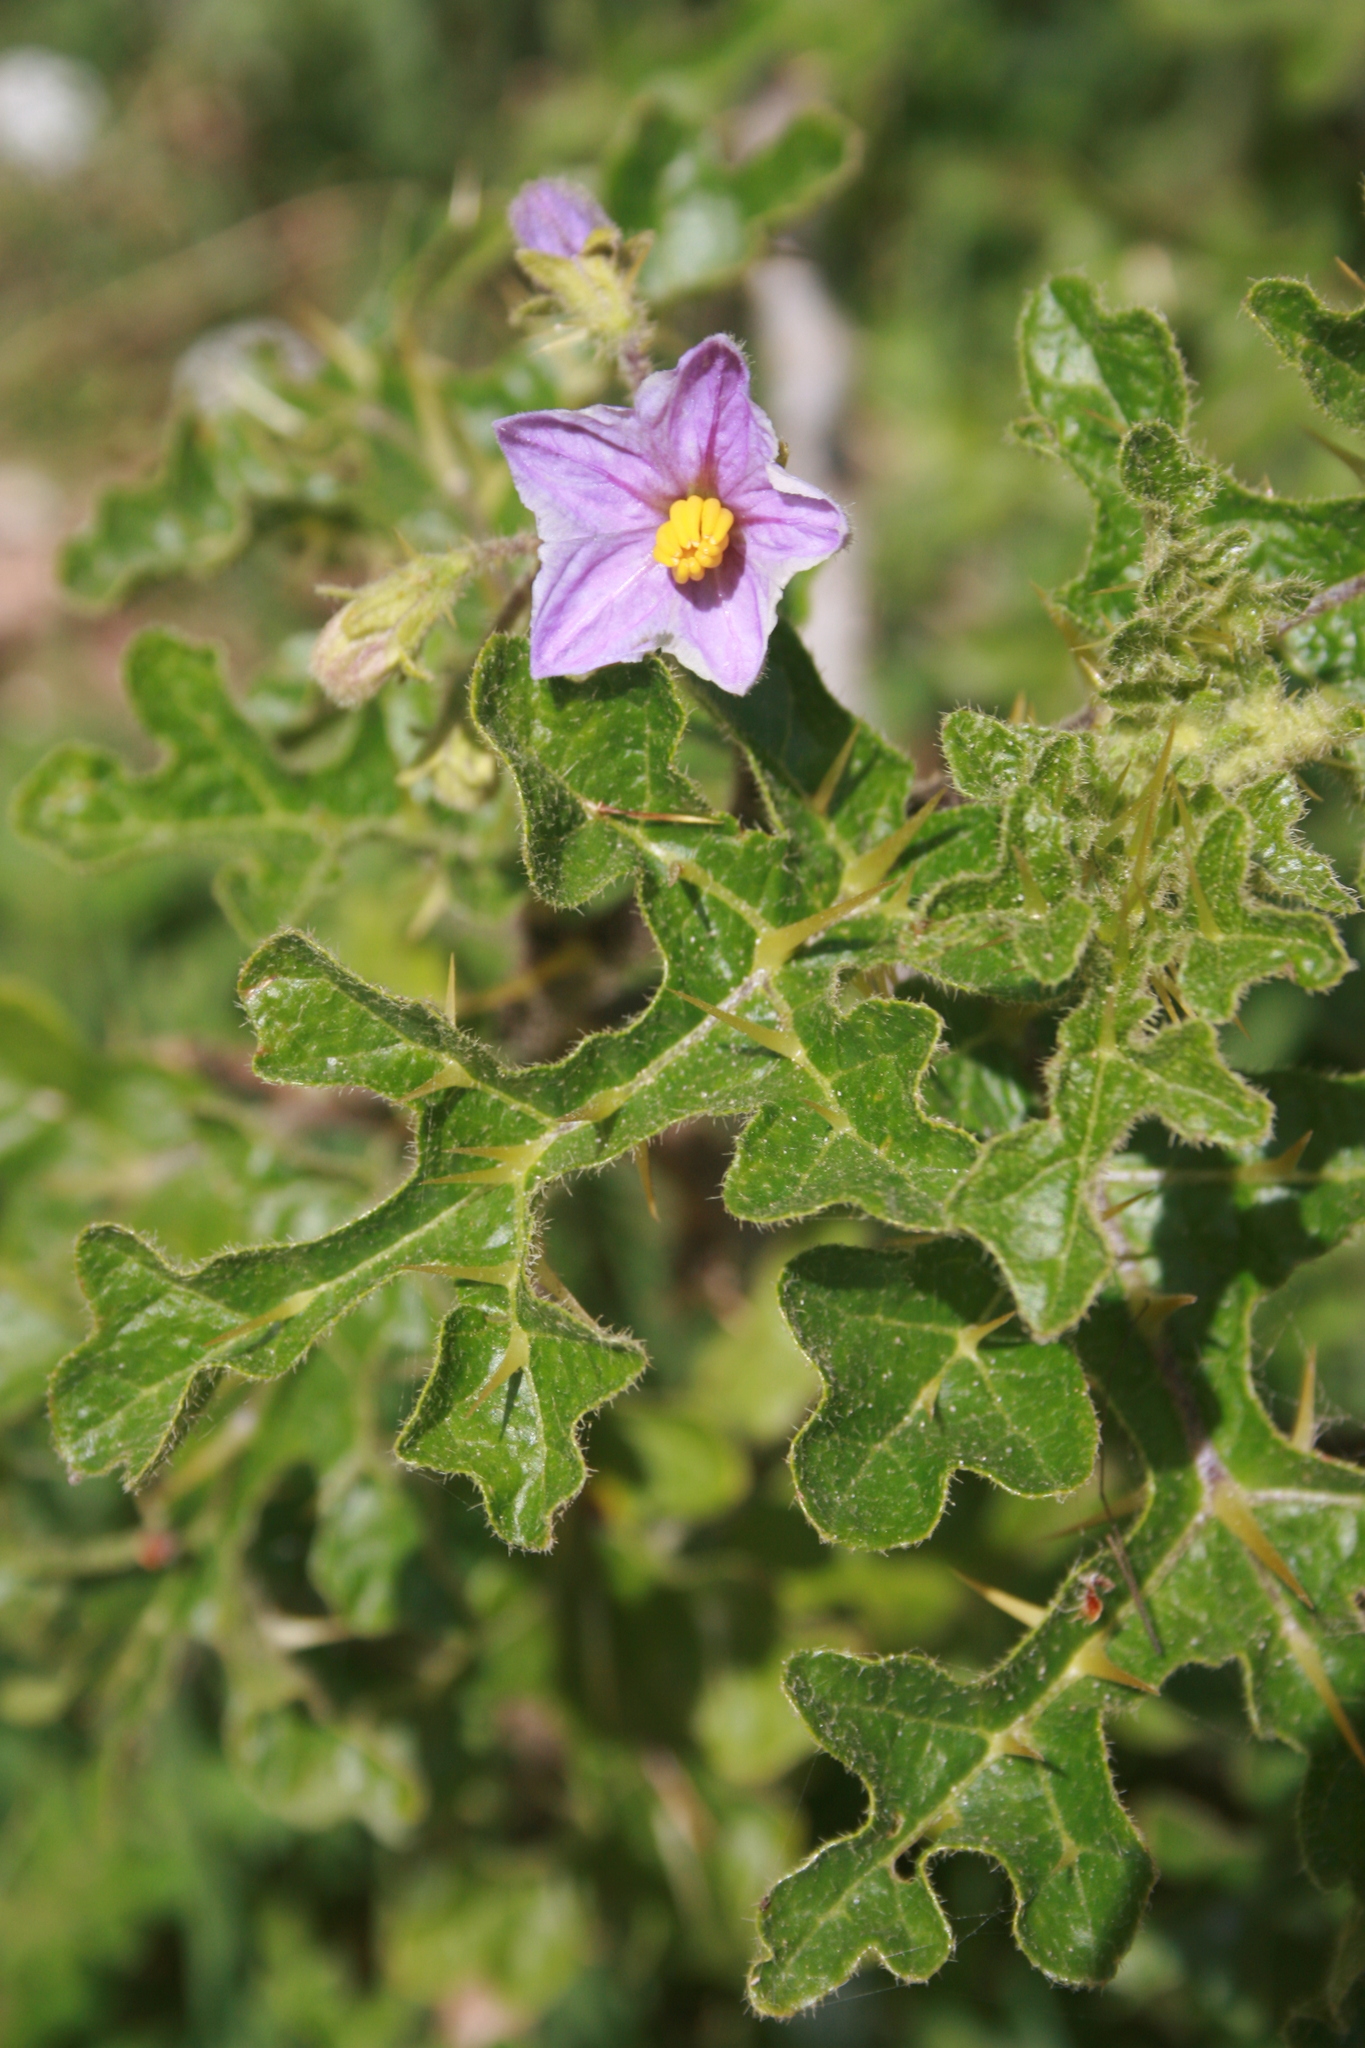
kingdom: Plantae
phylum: Tracheophyta
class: Magnoliopsida
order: Solanales
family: Solanaceae
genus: Solanum
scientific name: Solanum linnaeanum
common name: Nightshade
